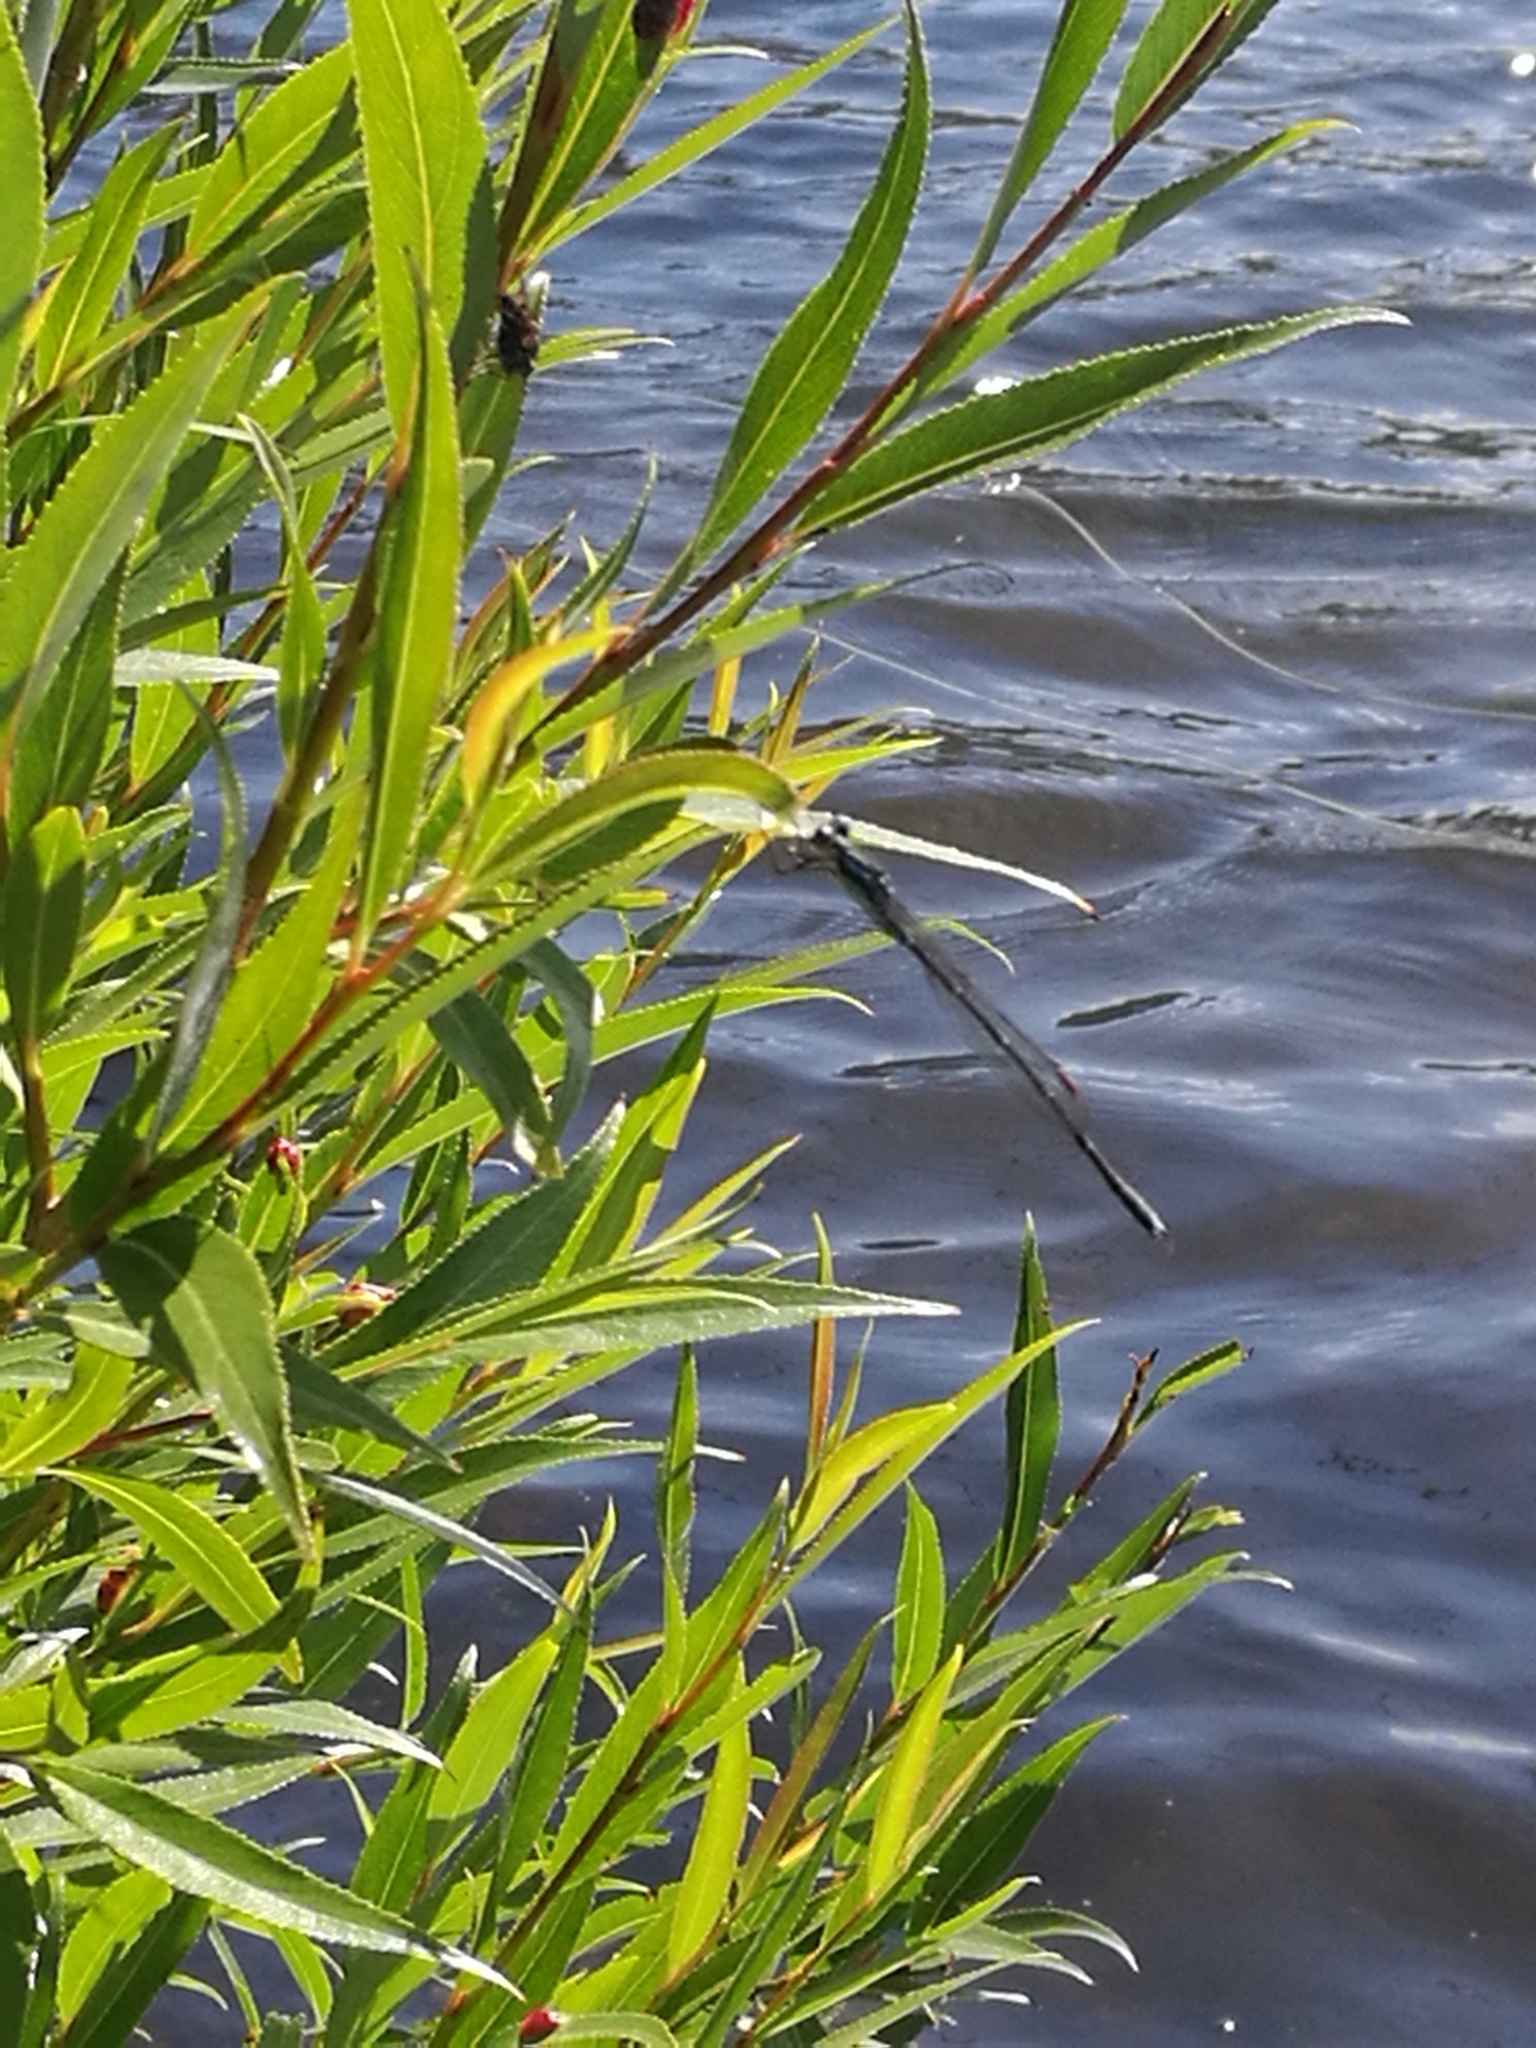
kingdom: Animalia
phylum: Arthropoda
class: Insecta
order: Odonata
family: Lestidae
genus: Austrolestes
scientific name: Austrolestes colensonis
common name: Blue damselfly
